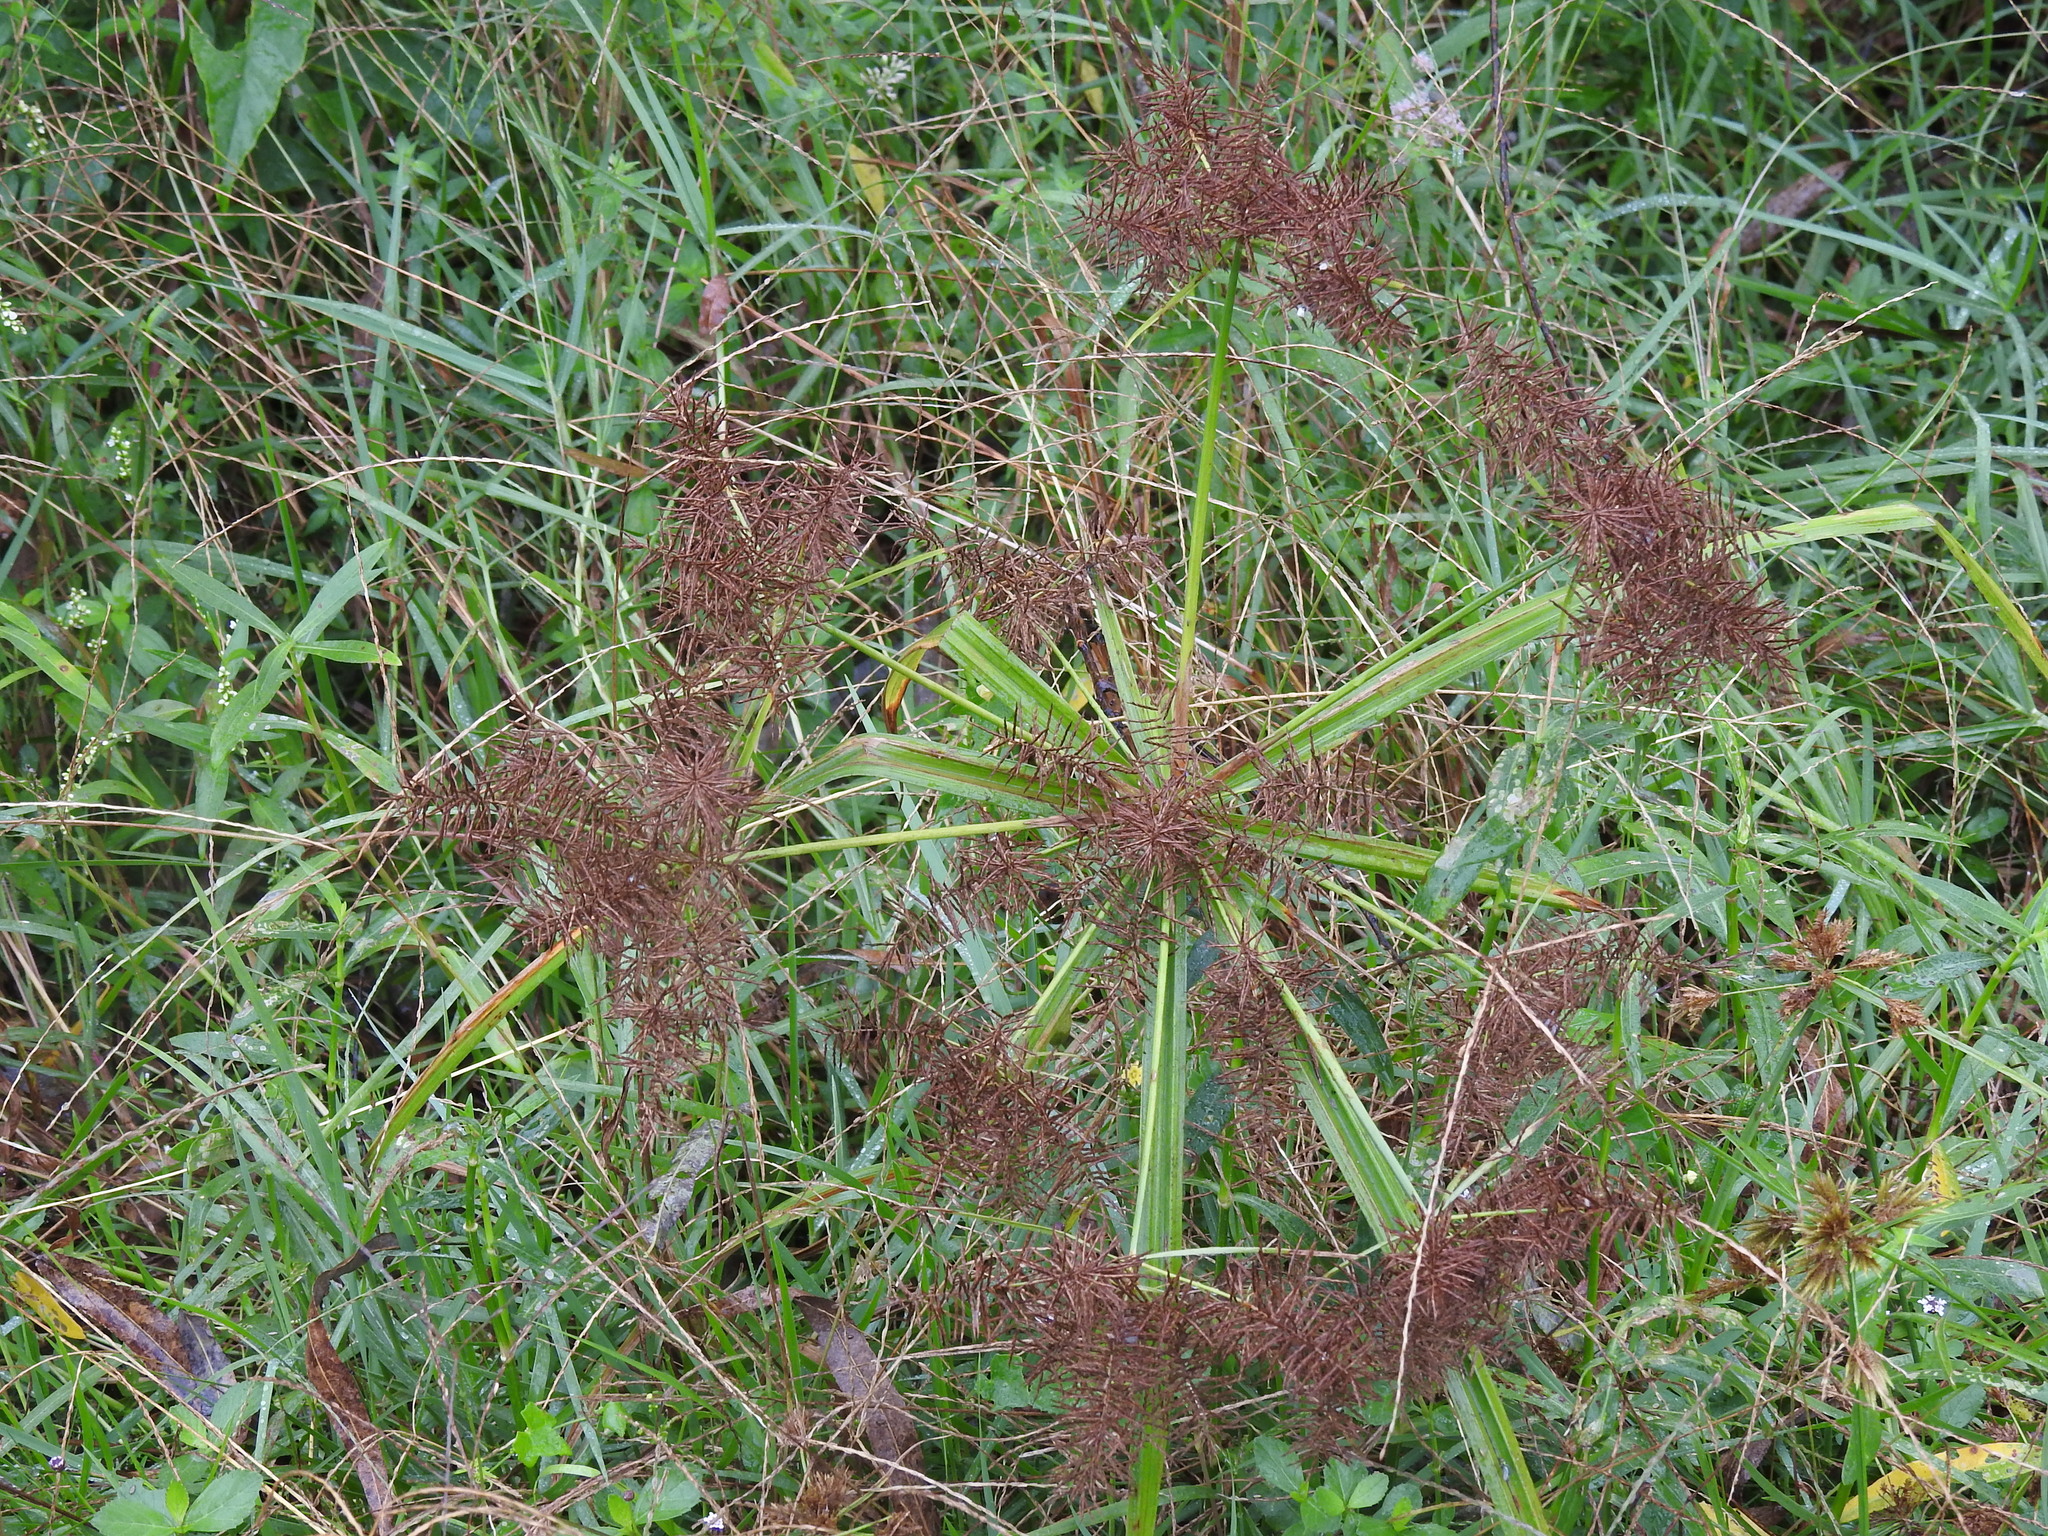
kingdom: Plantae
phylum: Tracheophyta
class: Liliopsida
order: Poales
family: Cyperaceae
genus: Cyperus
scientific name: Cyperus odoratus
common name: Fragrant flatsedge
